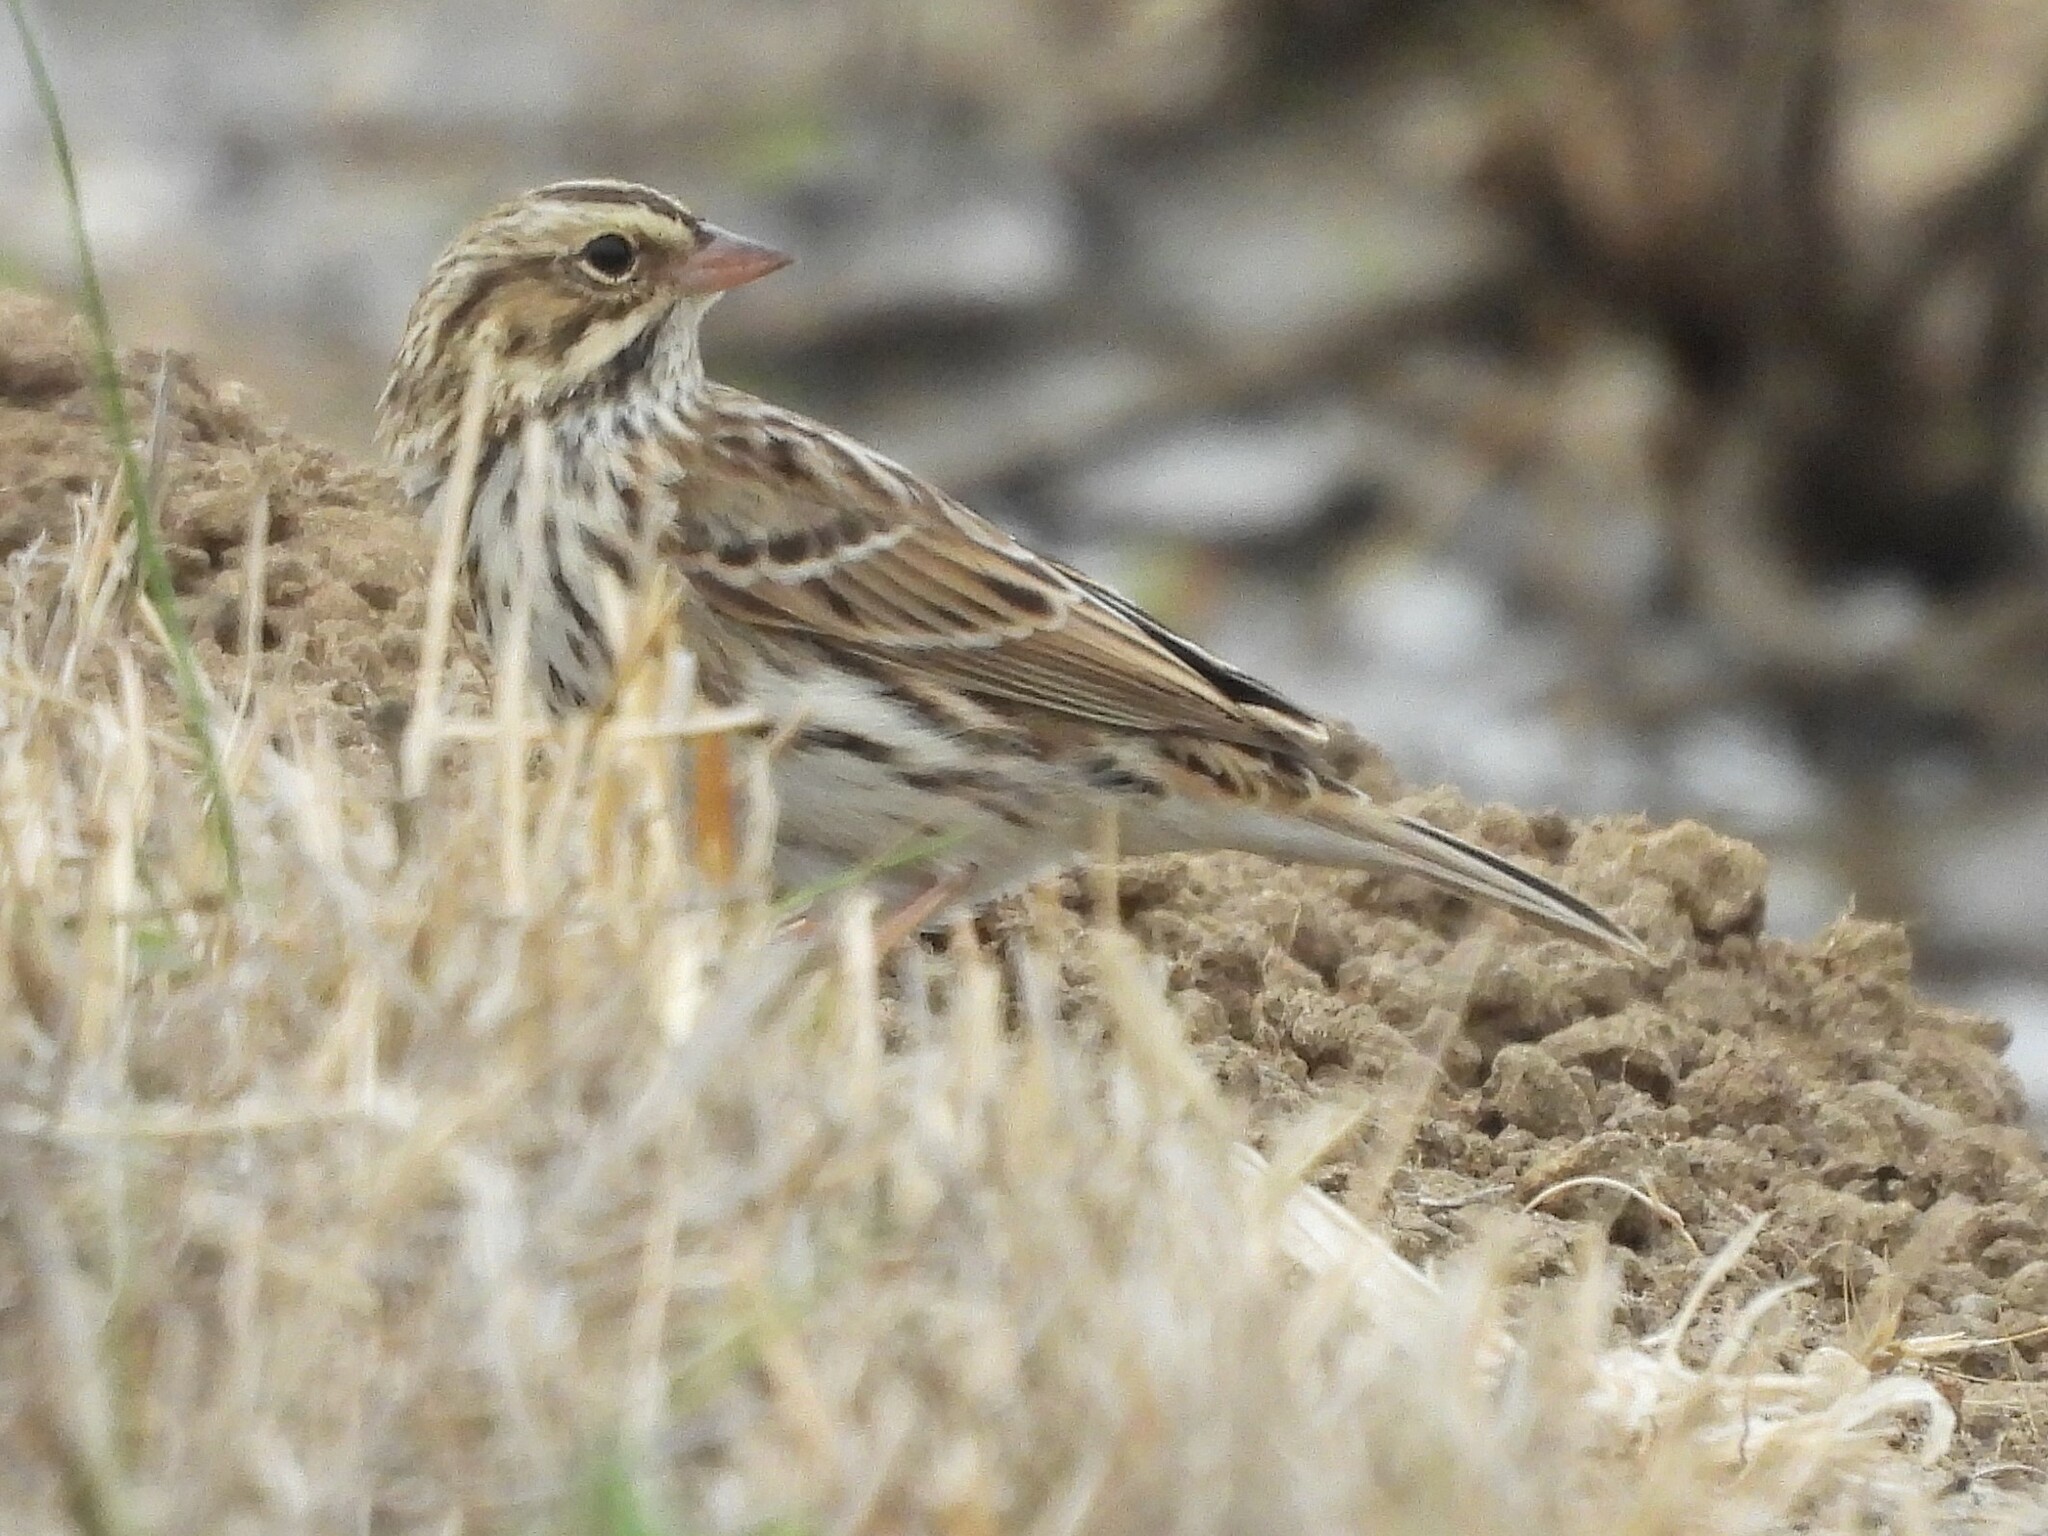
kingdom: Animalia
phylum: Chordata
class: Aves
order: Passeriformes
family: Passerellidae
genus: Passerculus
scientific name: Passerculus sandwichensis
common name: Savannah sparrow
